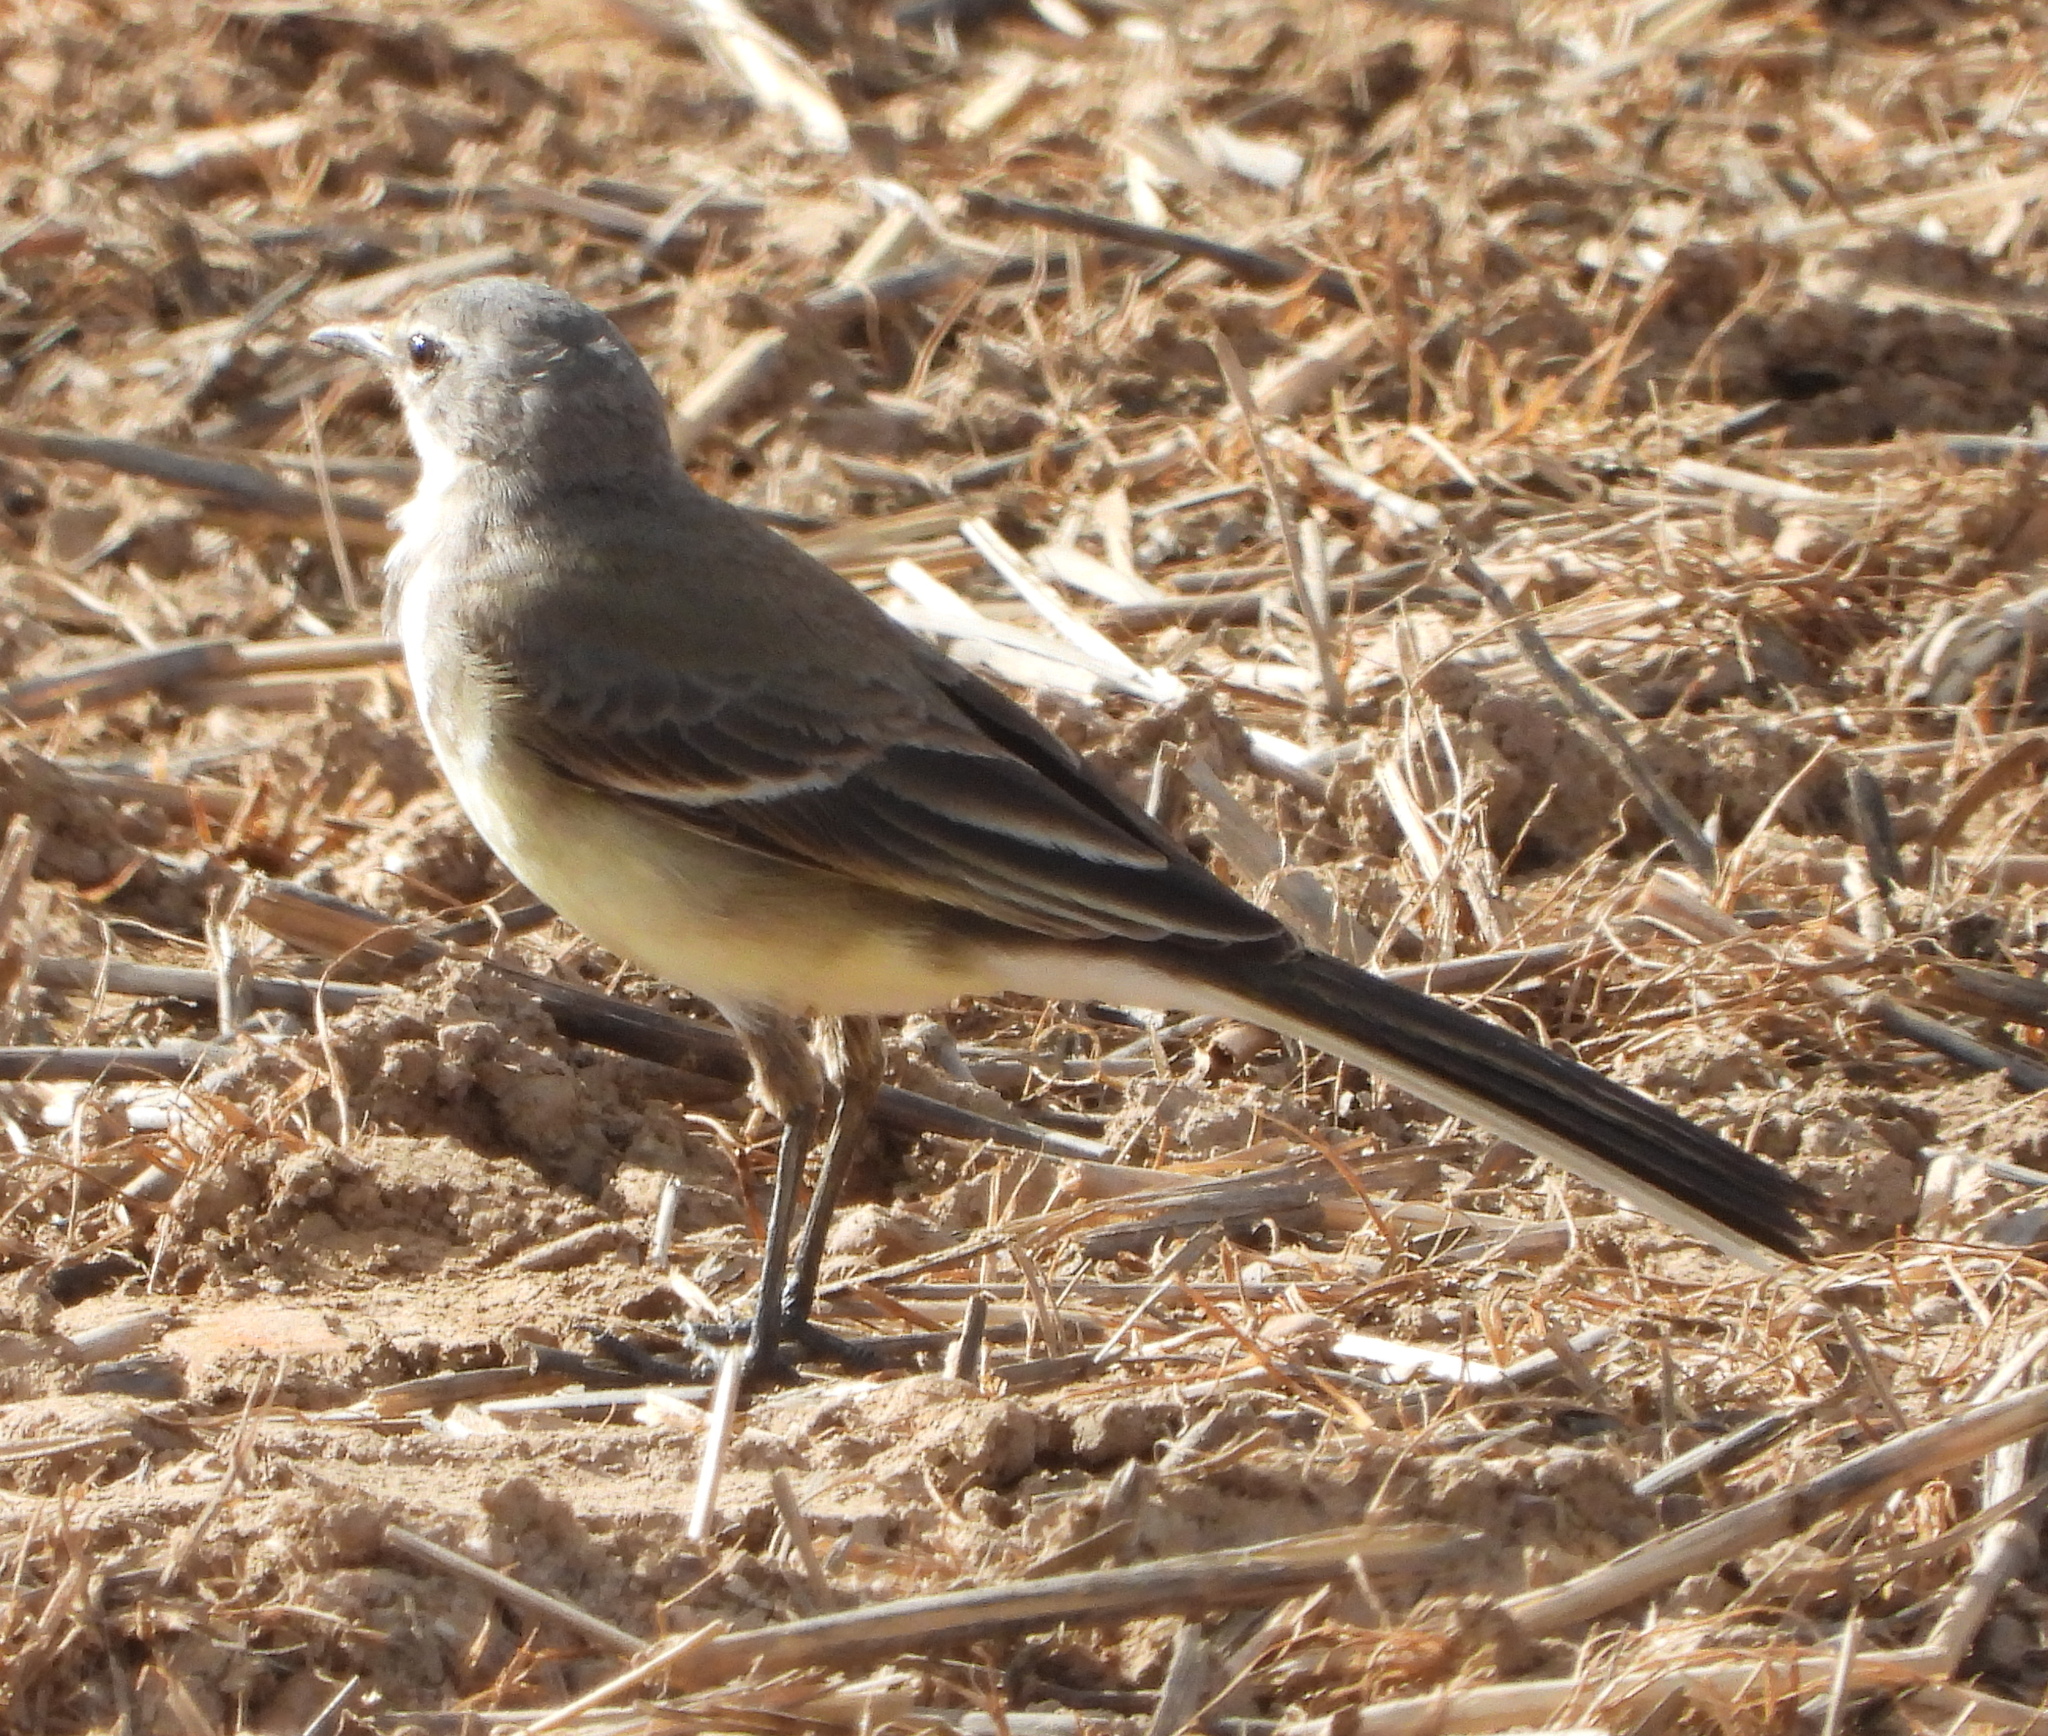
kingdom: Animalia
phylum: Chordata
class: Aves
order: Passeriformes
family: Motacillidae
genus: Motacilla
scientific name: Motacilla capensis
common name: Cape wagtail
